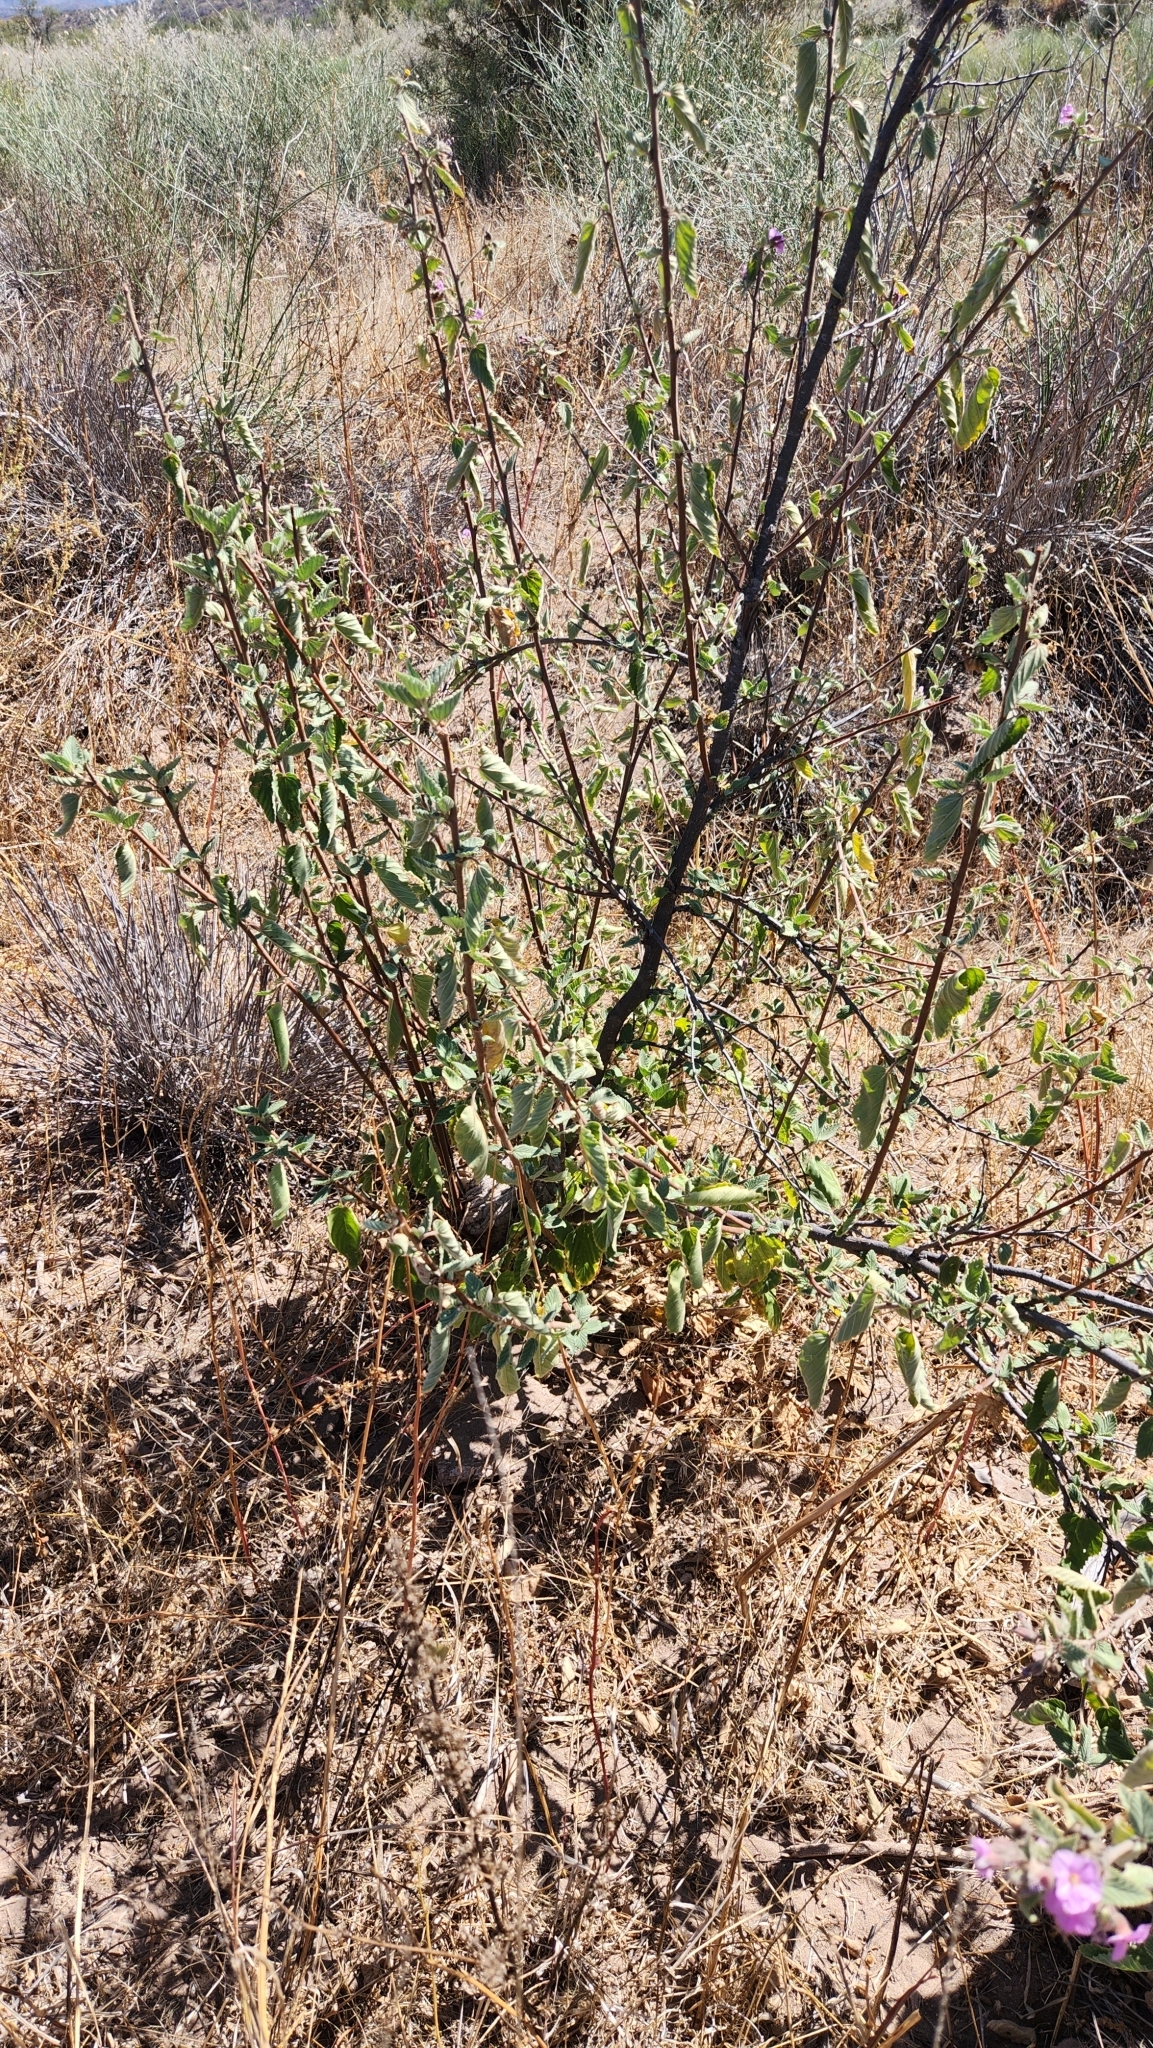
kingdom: Plantae
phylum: Tracheophyta
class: Magnoliopsida
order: Malvales
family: Malvaceae
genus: Melochia
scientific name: Melochia tomentosa
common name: Black torch
